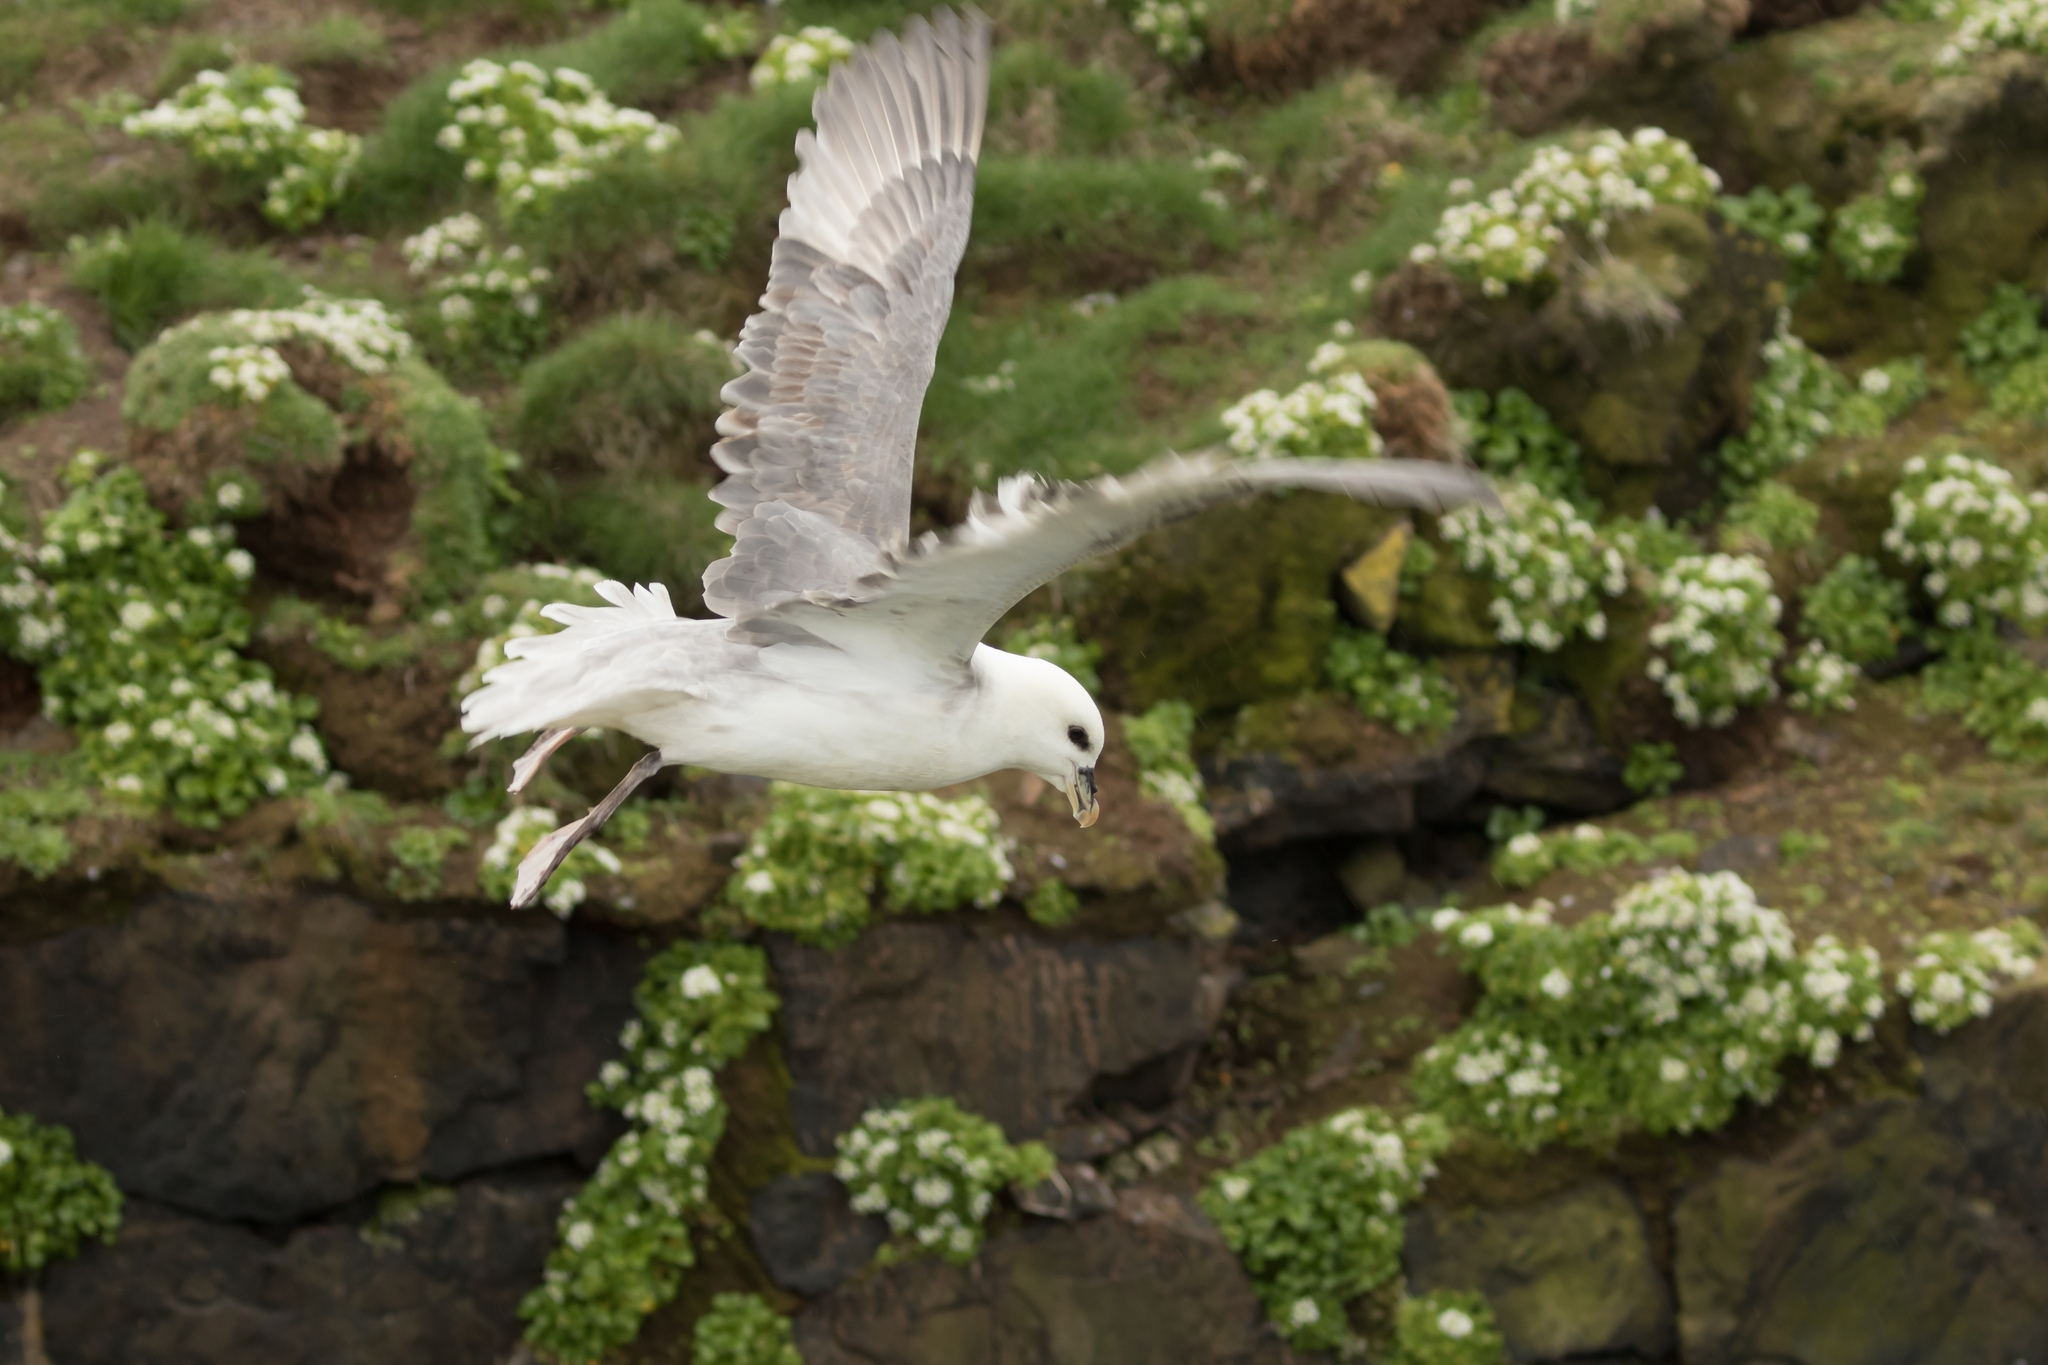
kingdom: Animalia
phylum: Chordata
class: Aves
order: Procellariiformes
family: Procellariidae
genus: Fulmarus
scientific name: Fulmarus glacialis
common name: Northern fulmar
